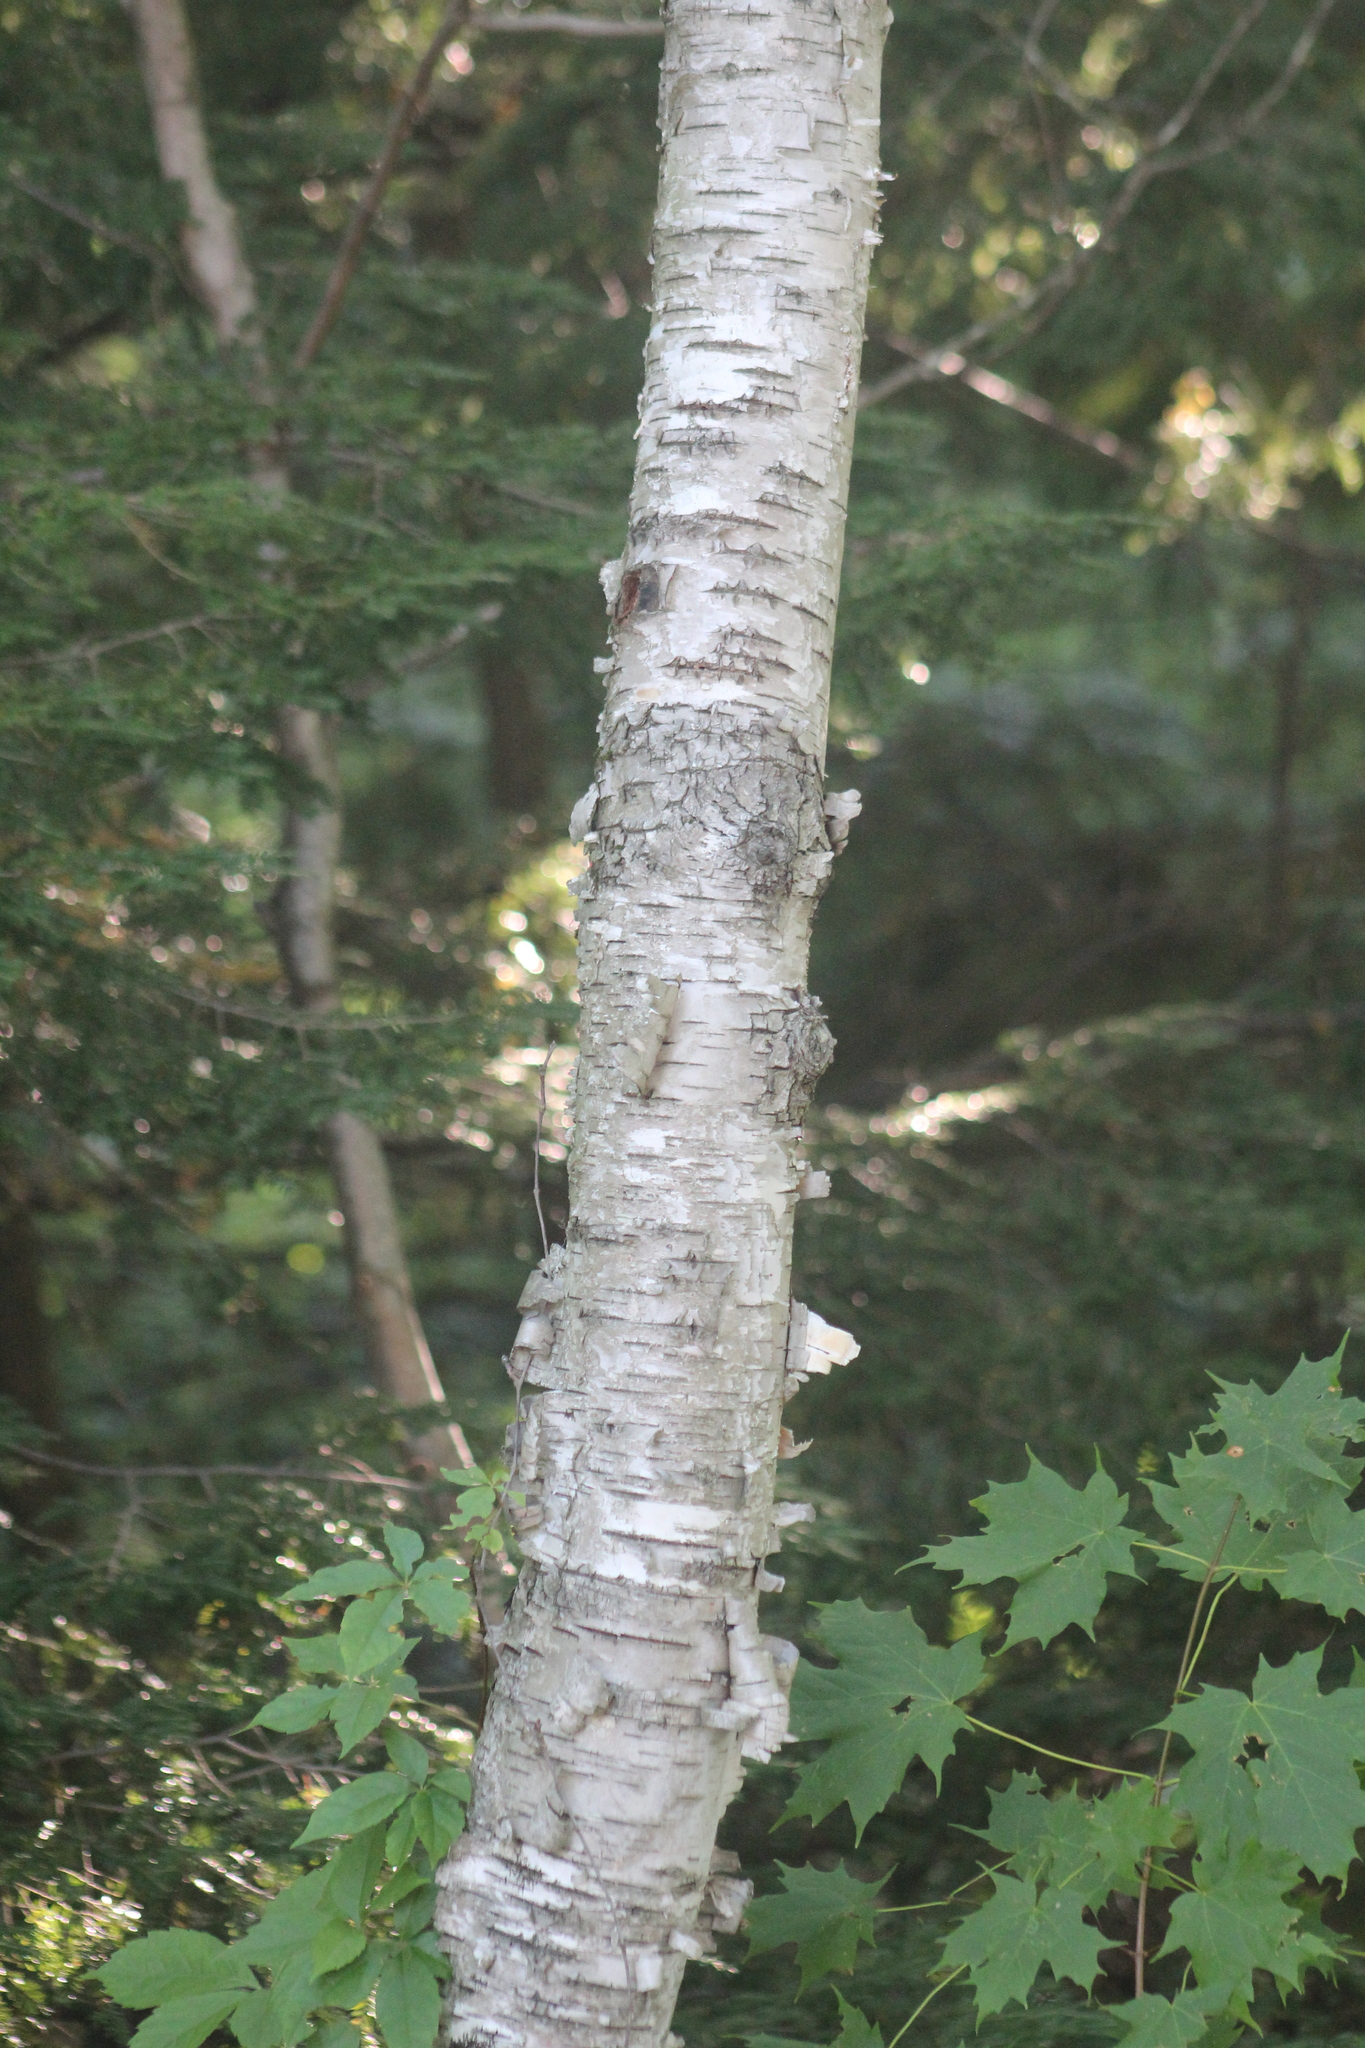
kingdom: Plantae
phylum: Tracheophyta
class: Magnoliopsida
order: Fagales
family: Betulaceae
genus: Betula
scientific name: Betula papyrifera
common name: Paper birch
